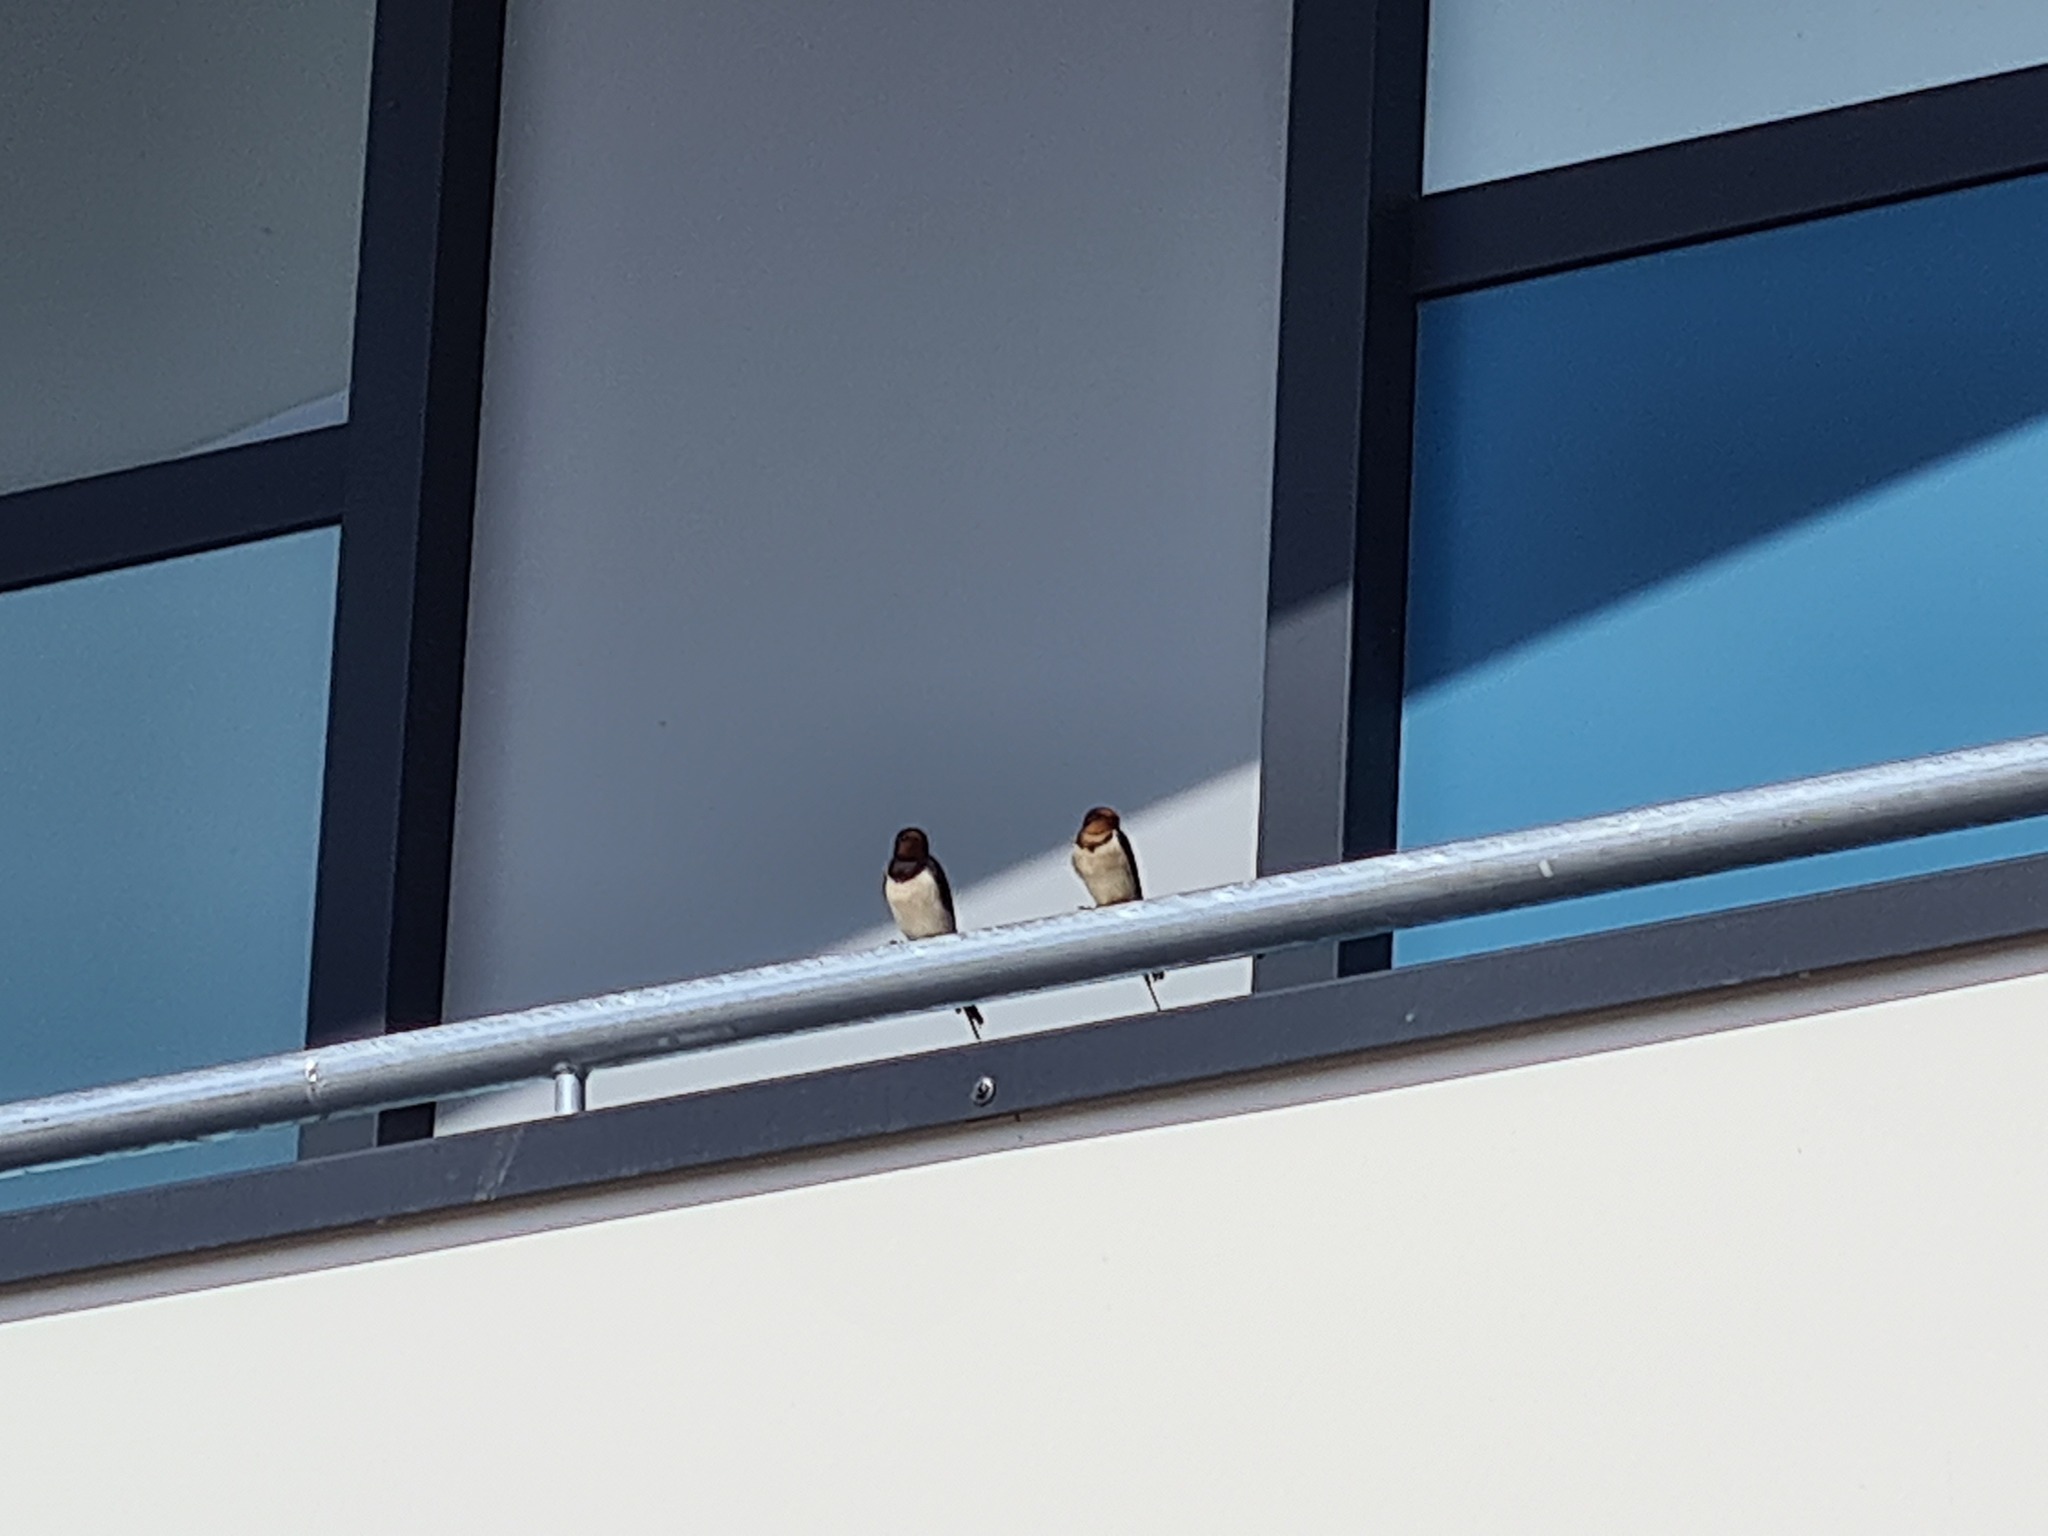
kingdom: Animalia
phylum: Chordata
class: Aves
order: Passeriformes
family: Hirundinidae
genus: Hirundo
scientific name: Hirundo rustica
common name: Barn swallow
